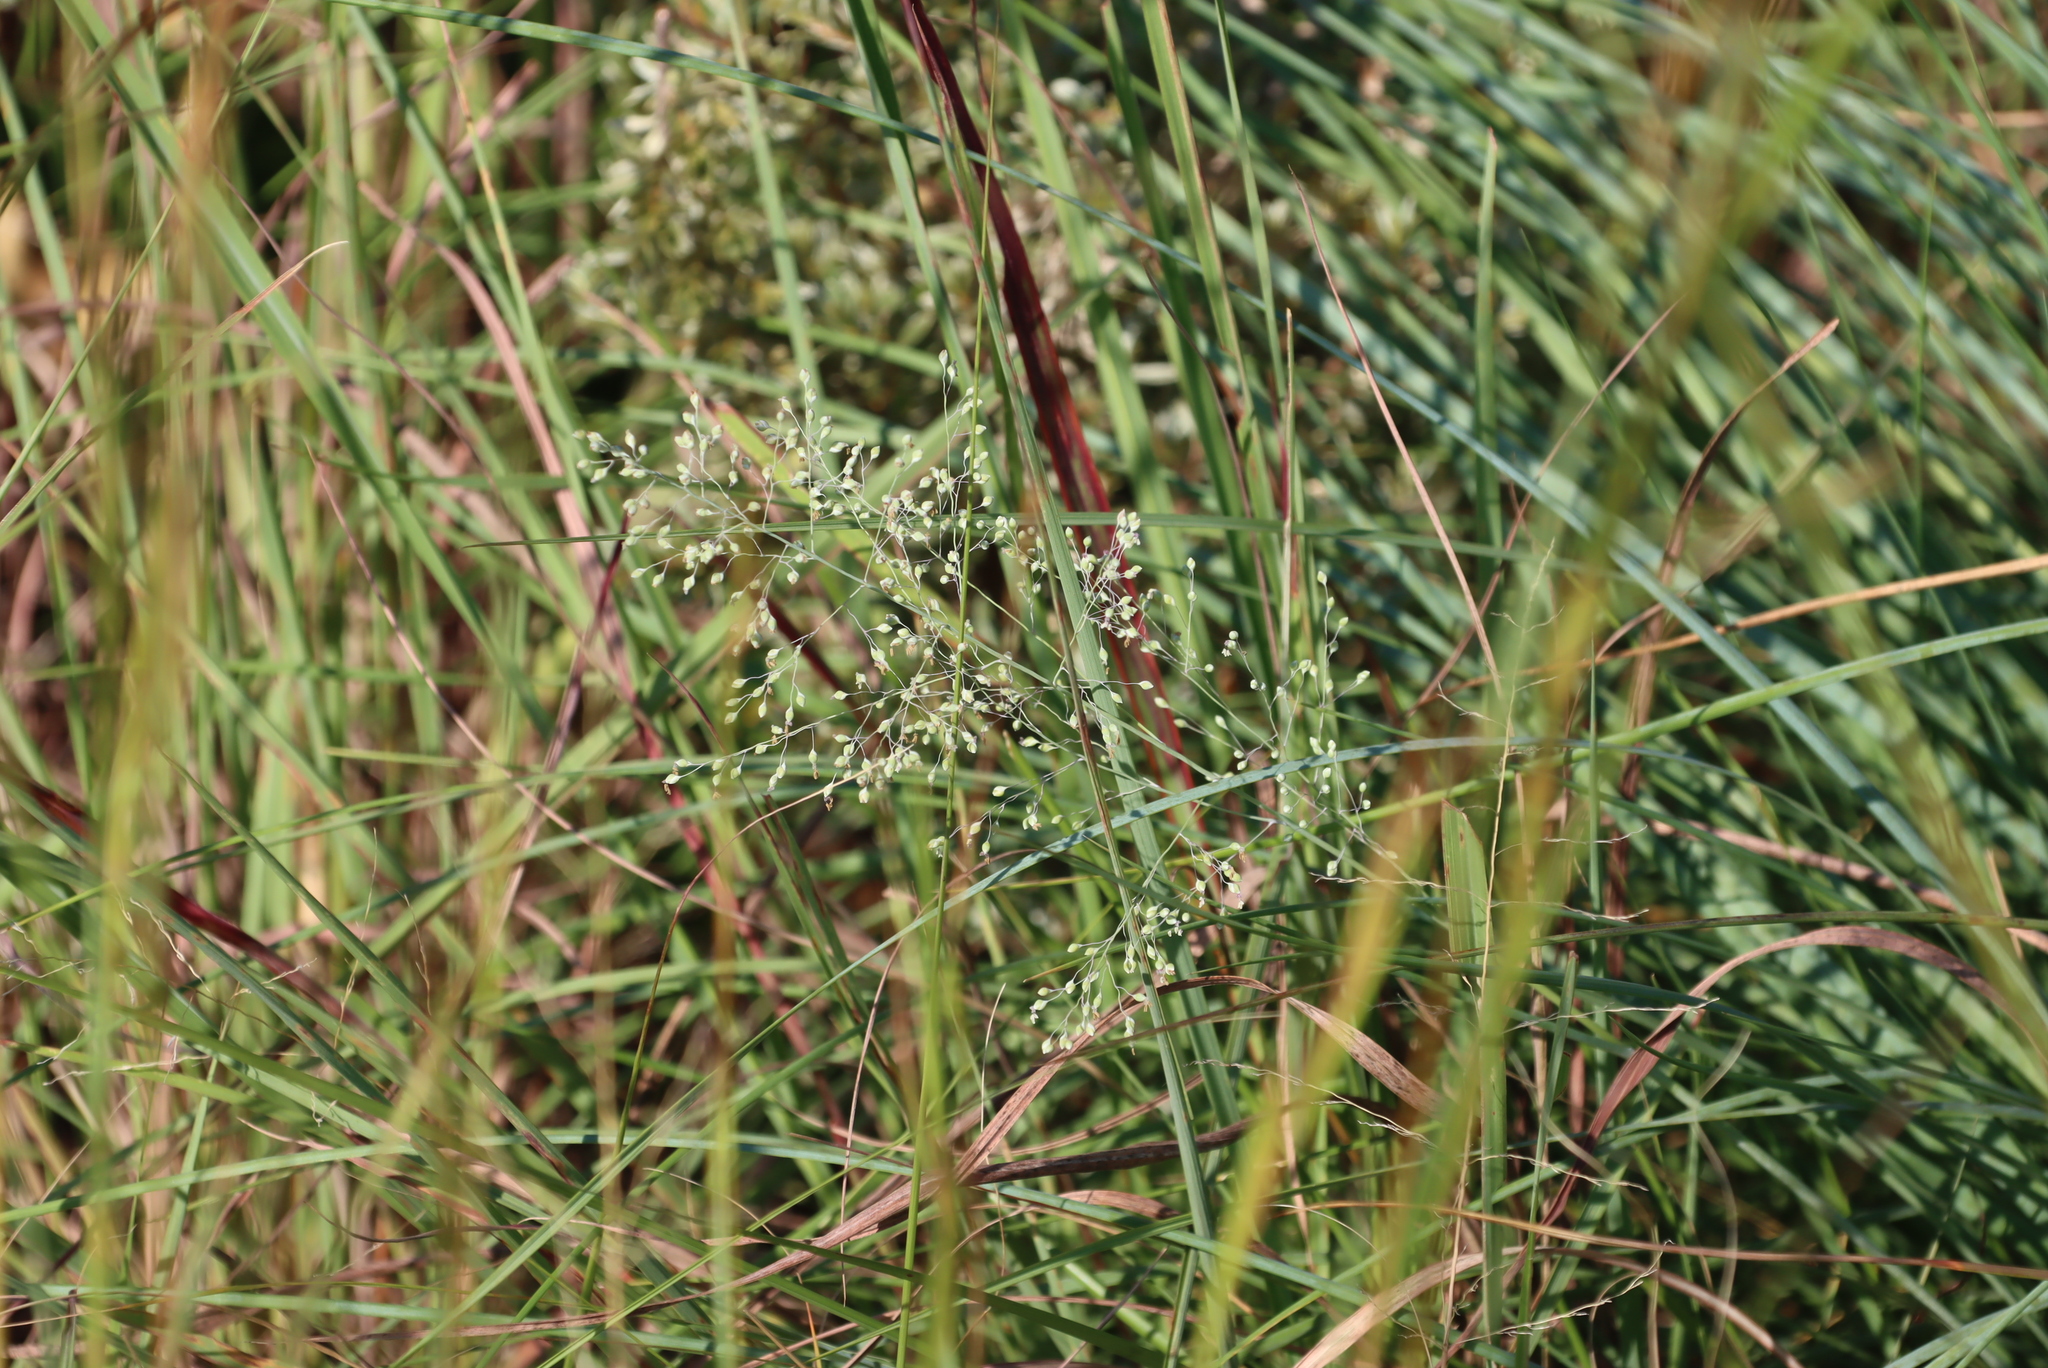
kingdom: Plantae
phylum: Tracheophyta
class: Liliopsida
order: Poales
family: Poaceae
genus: Trichanthecium
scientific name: Trichanthecium natalense
